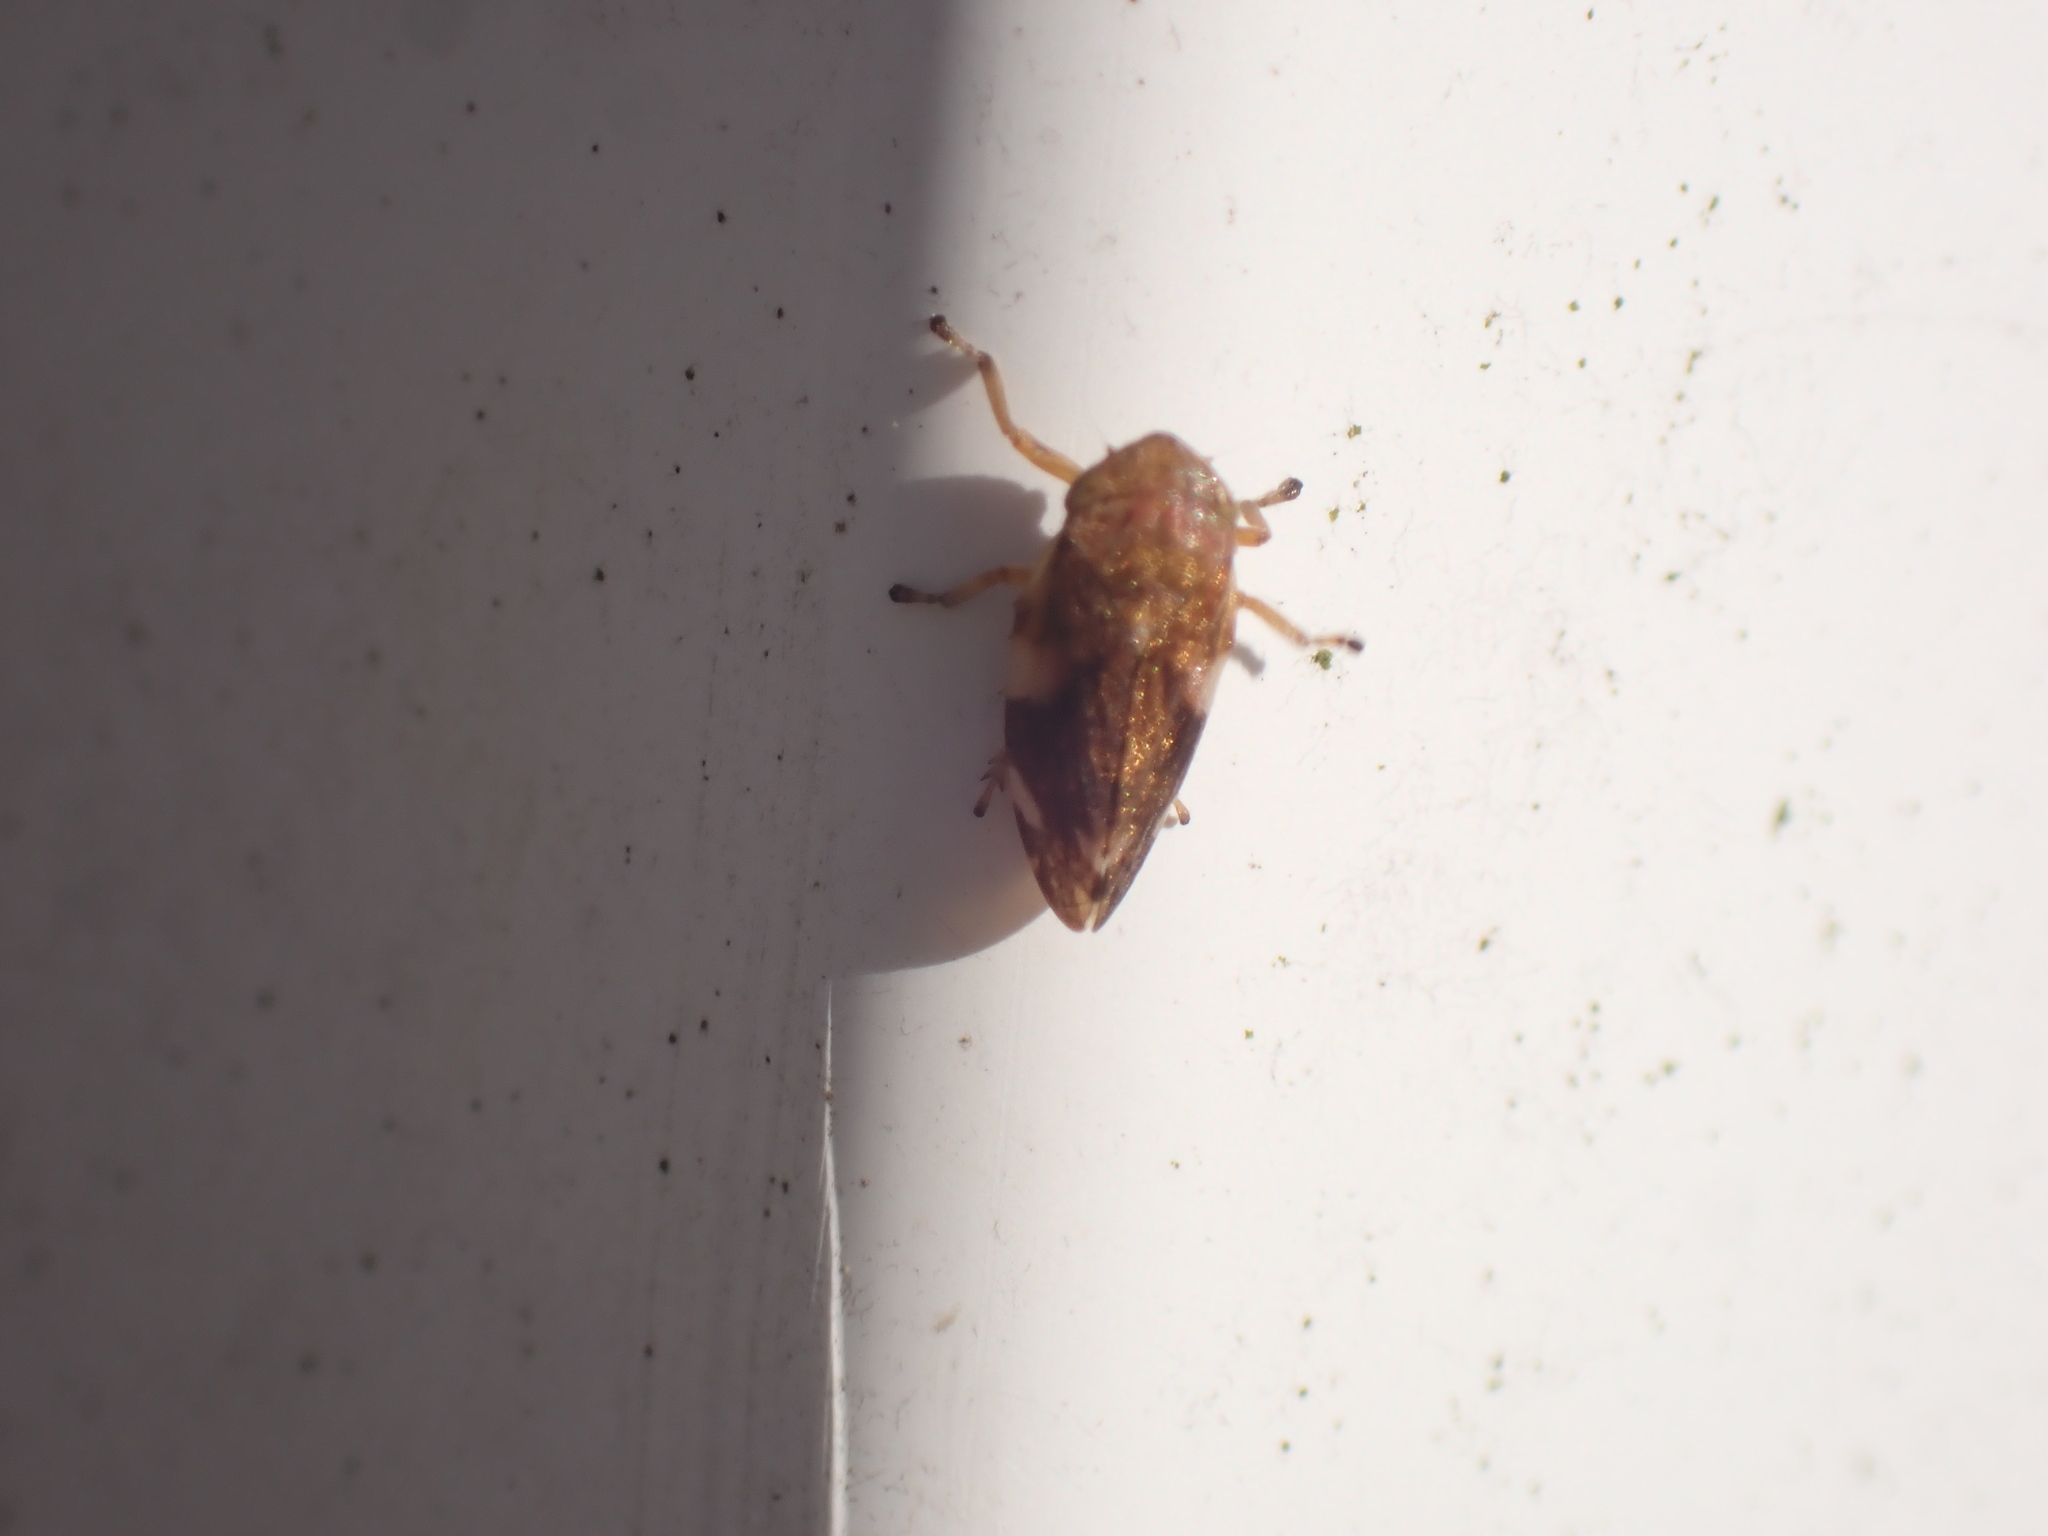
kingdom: Animalia
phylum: Arthropoda
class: Insecta
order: Hemiptera
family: Aphrophoridae
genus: Philaenus
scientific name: Philaenus spumarius
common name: Meadow spittlebug
